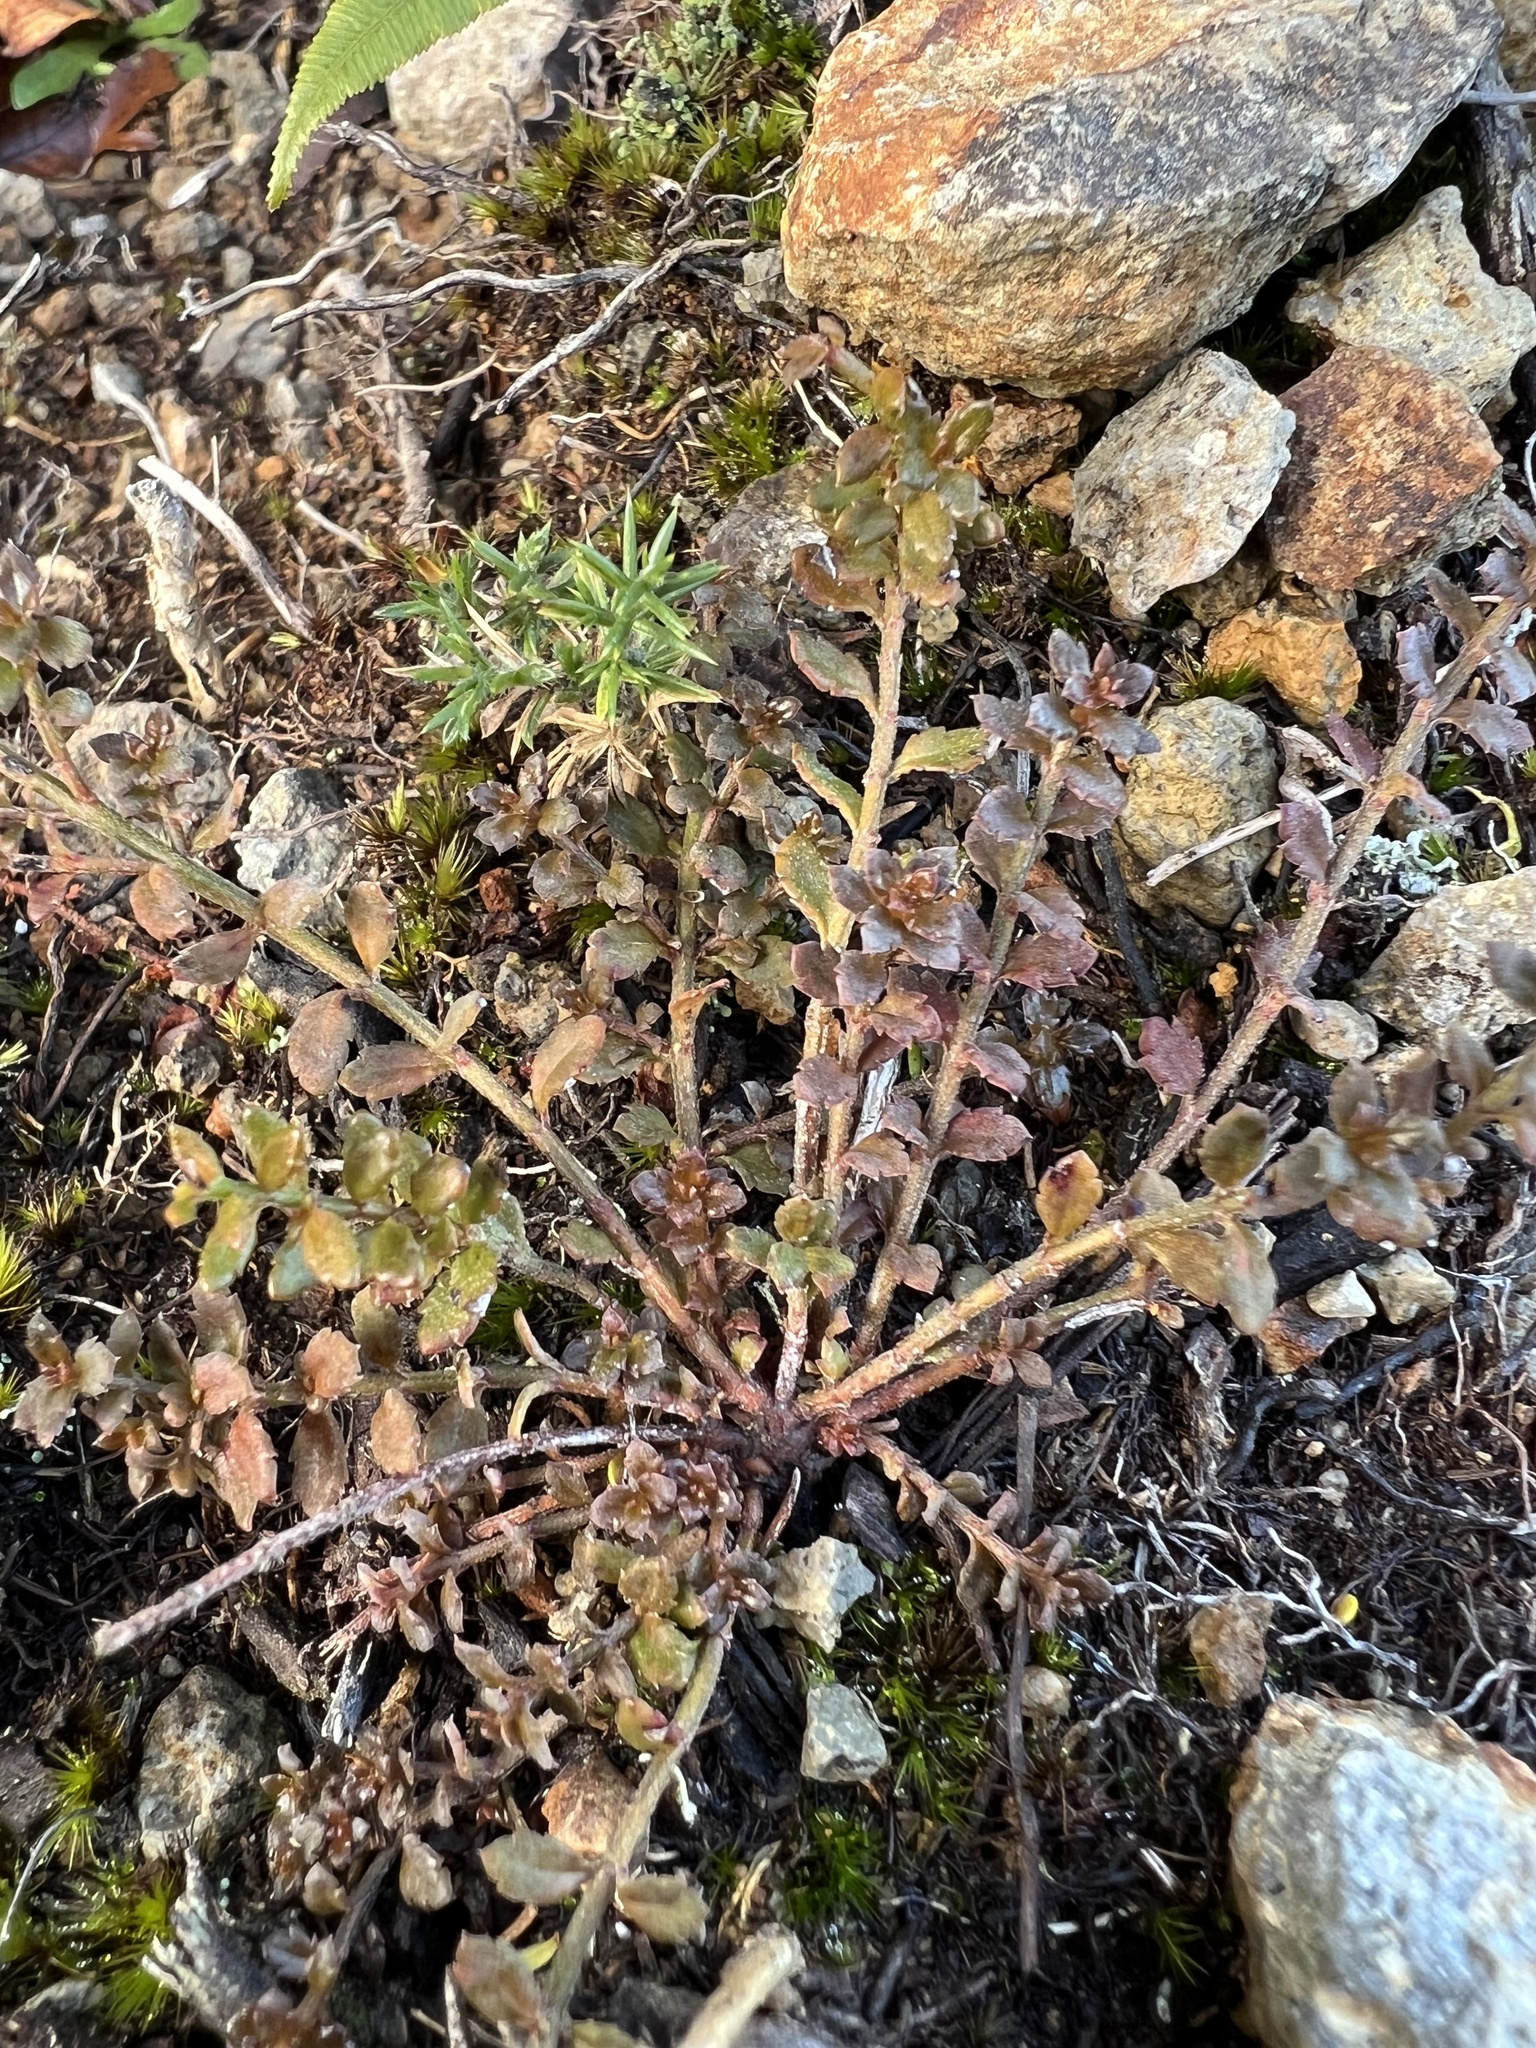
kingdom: Plantae
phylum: Tracheophyta
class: Magnoliopsida
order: Saxifragales
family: Haloragaceae
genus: Gonocarpus
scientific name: Gonocarpus incanus
